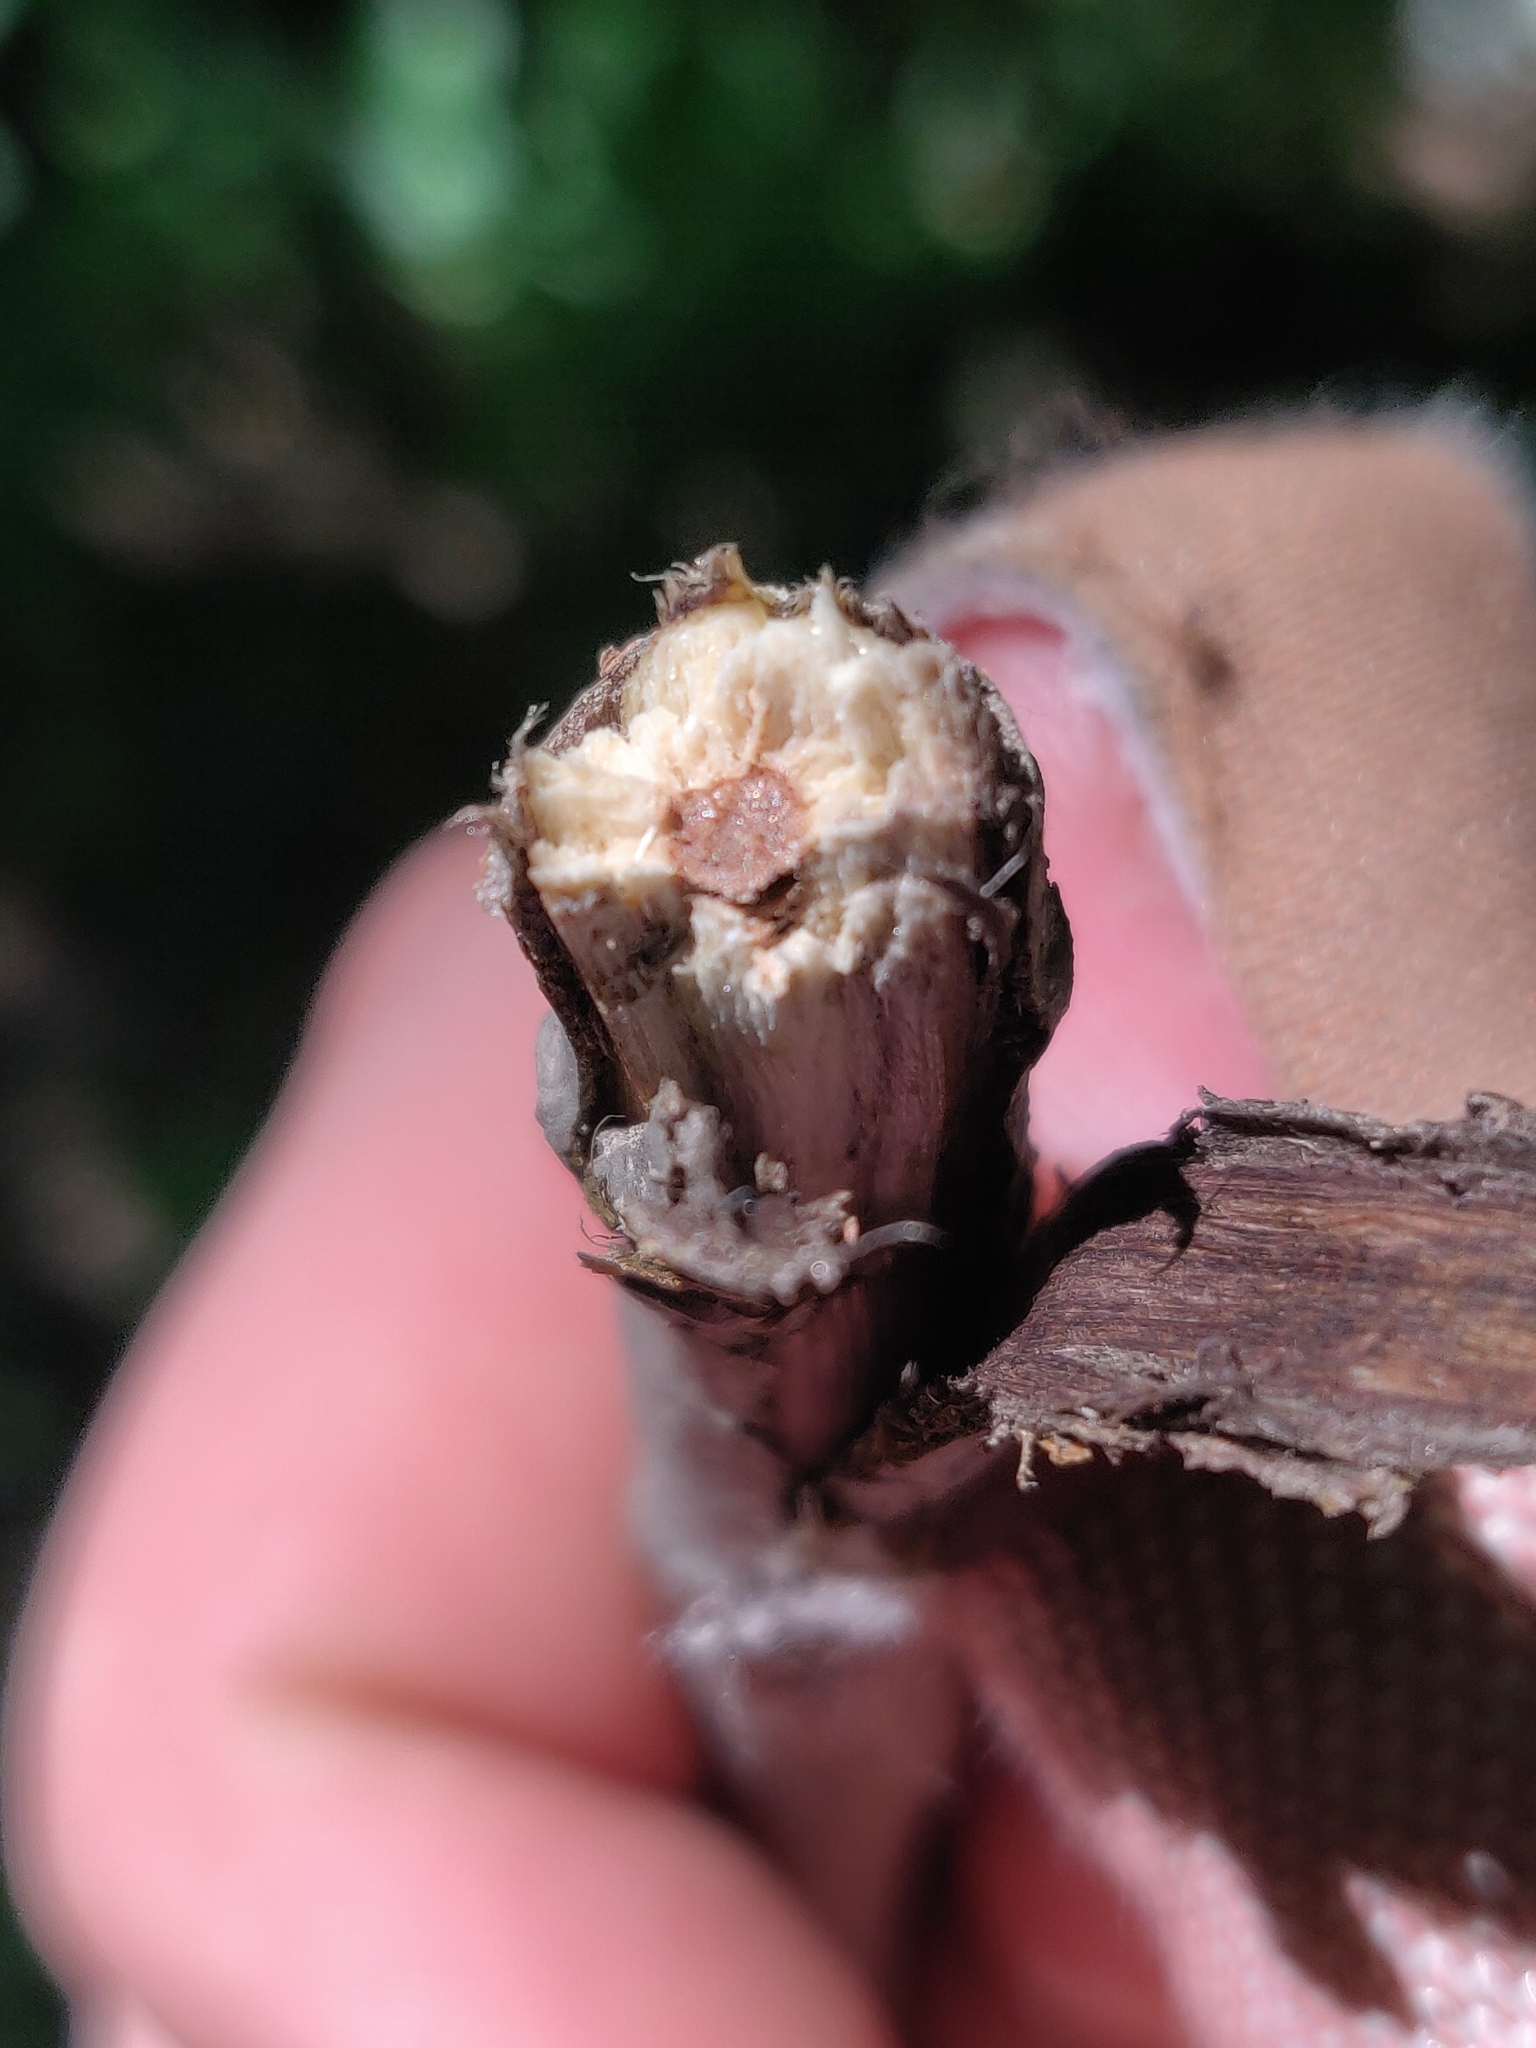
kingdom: Plantae
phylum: Tracheophyta
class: Magnoliopsida
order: Fagales
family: Juglandaceae
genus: Juglans
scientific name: Juglans cinerea
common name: Butternut
